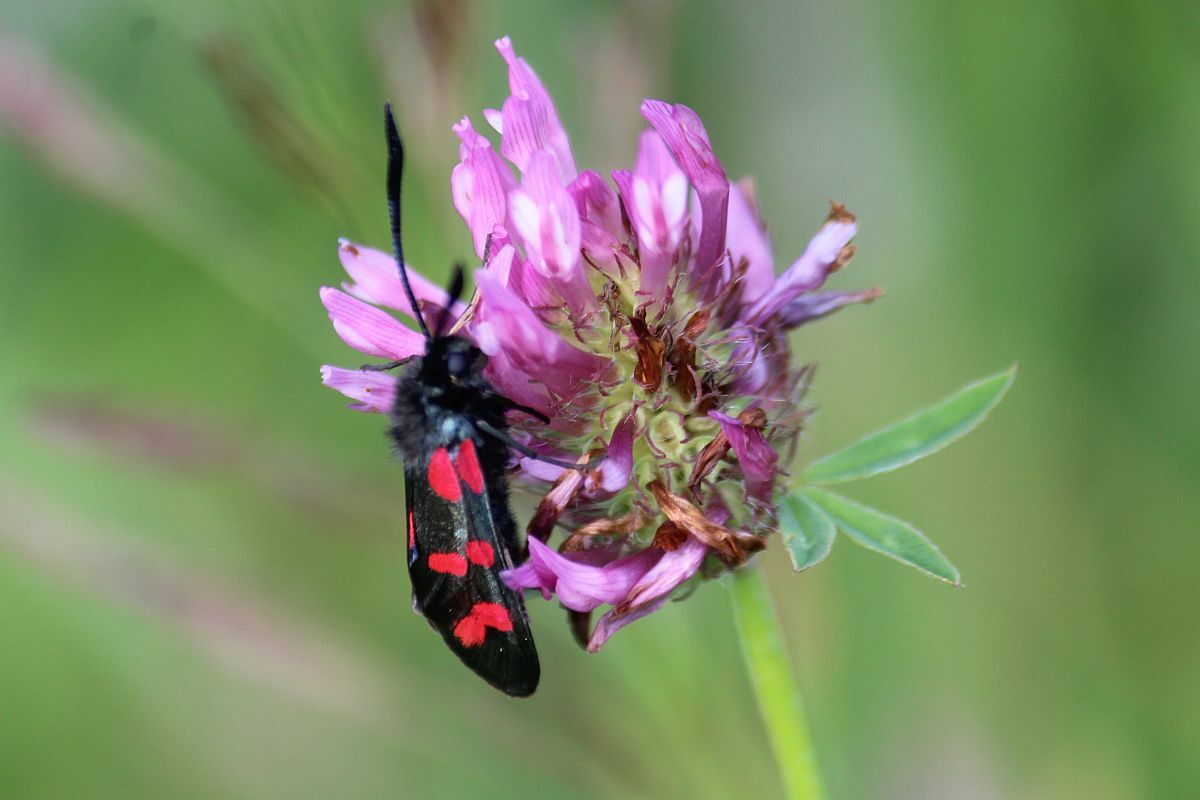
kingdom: Animalia
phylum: Arthropoda
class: Insecta
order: Lepidoptera
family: Zygaenidae
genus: Zygaena
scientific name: Zygaena filipendulae
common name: Six-spot burnet
